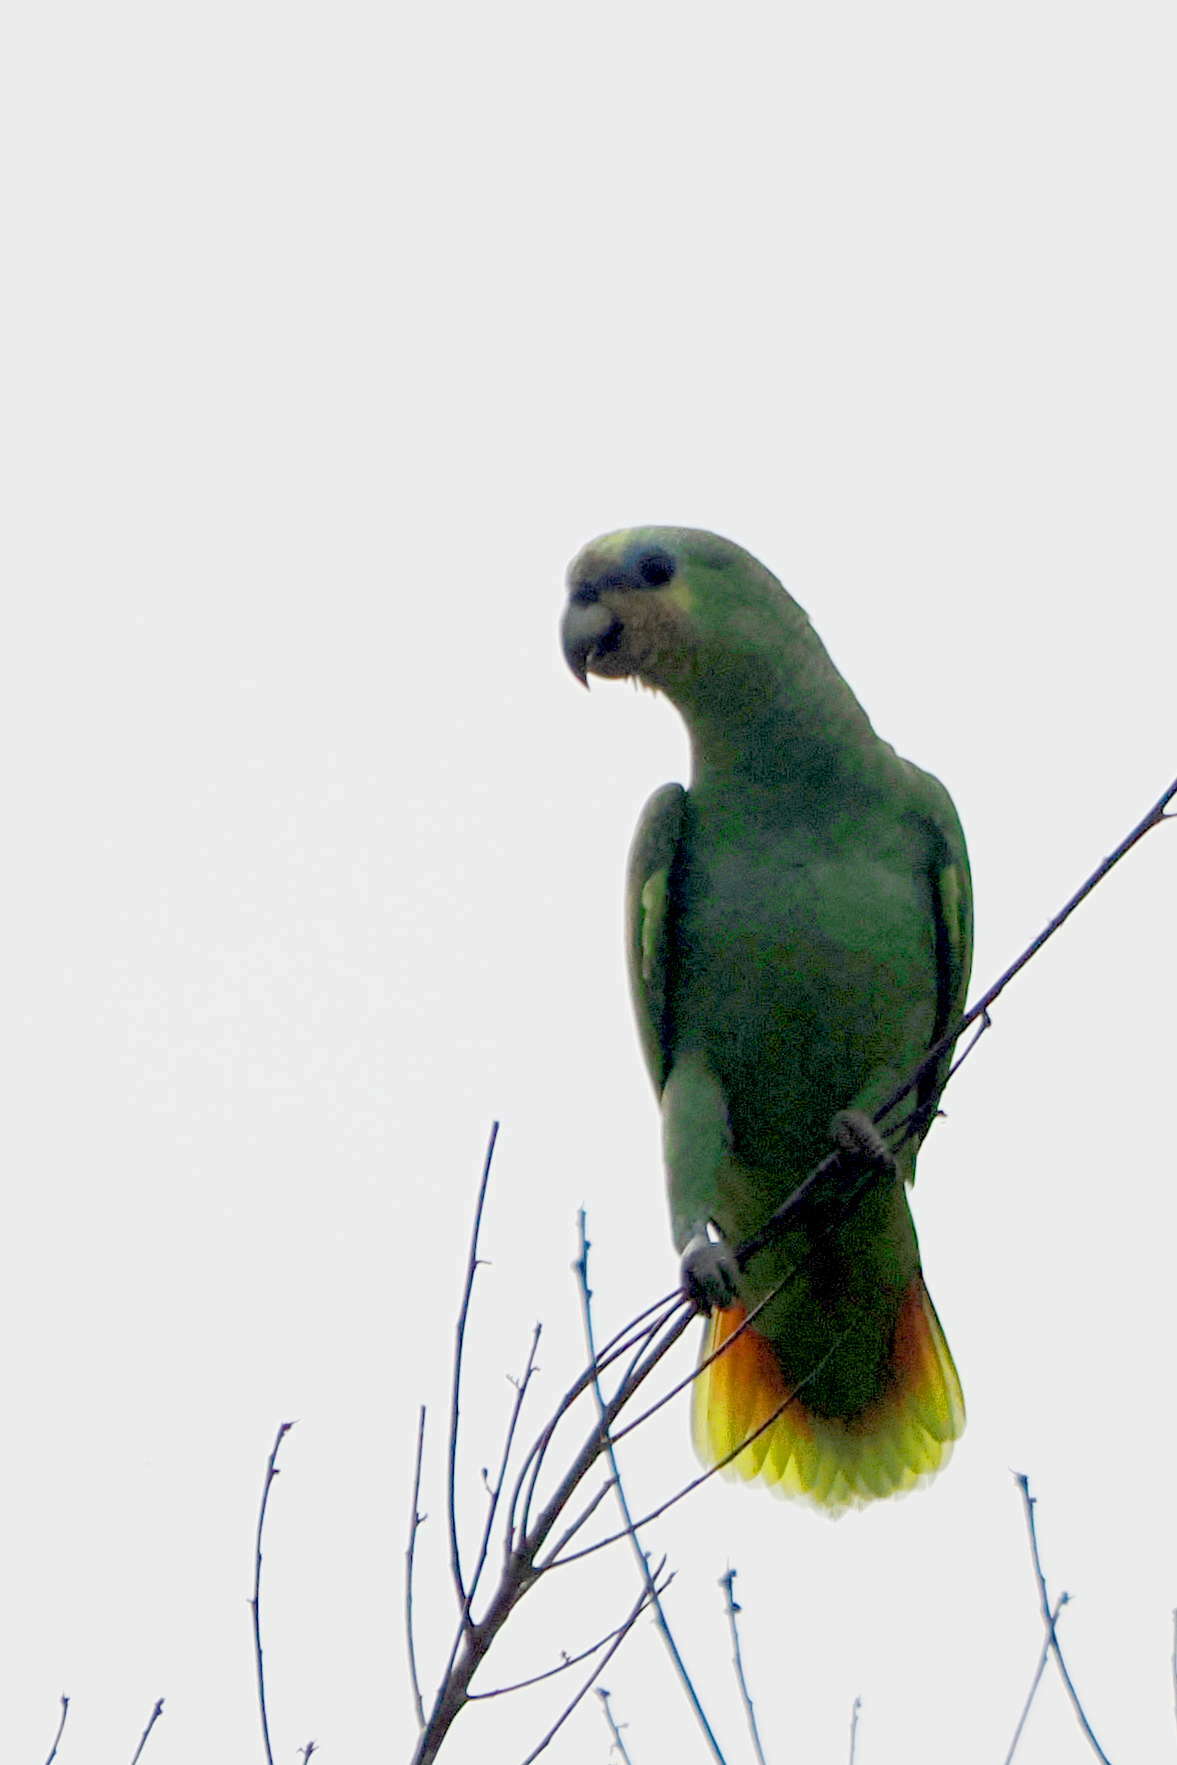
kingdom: Animalia
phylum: Chordata
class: Aves
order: Psittaciformes
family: Psittacidae
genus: Amazona
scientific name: Amazona amazonica
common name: Orange-winged amazon
